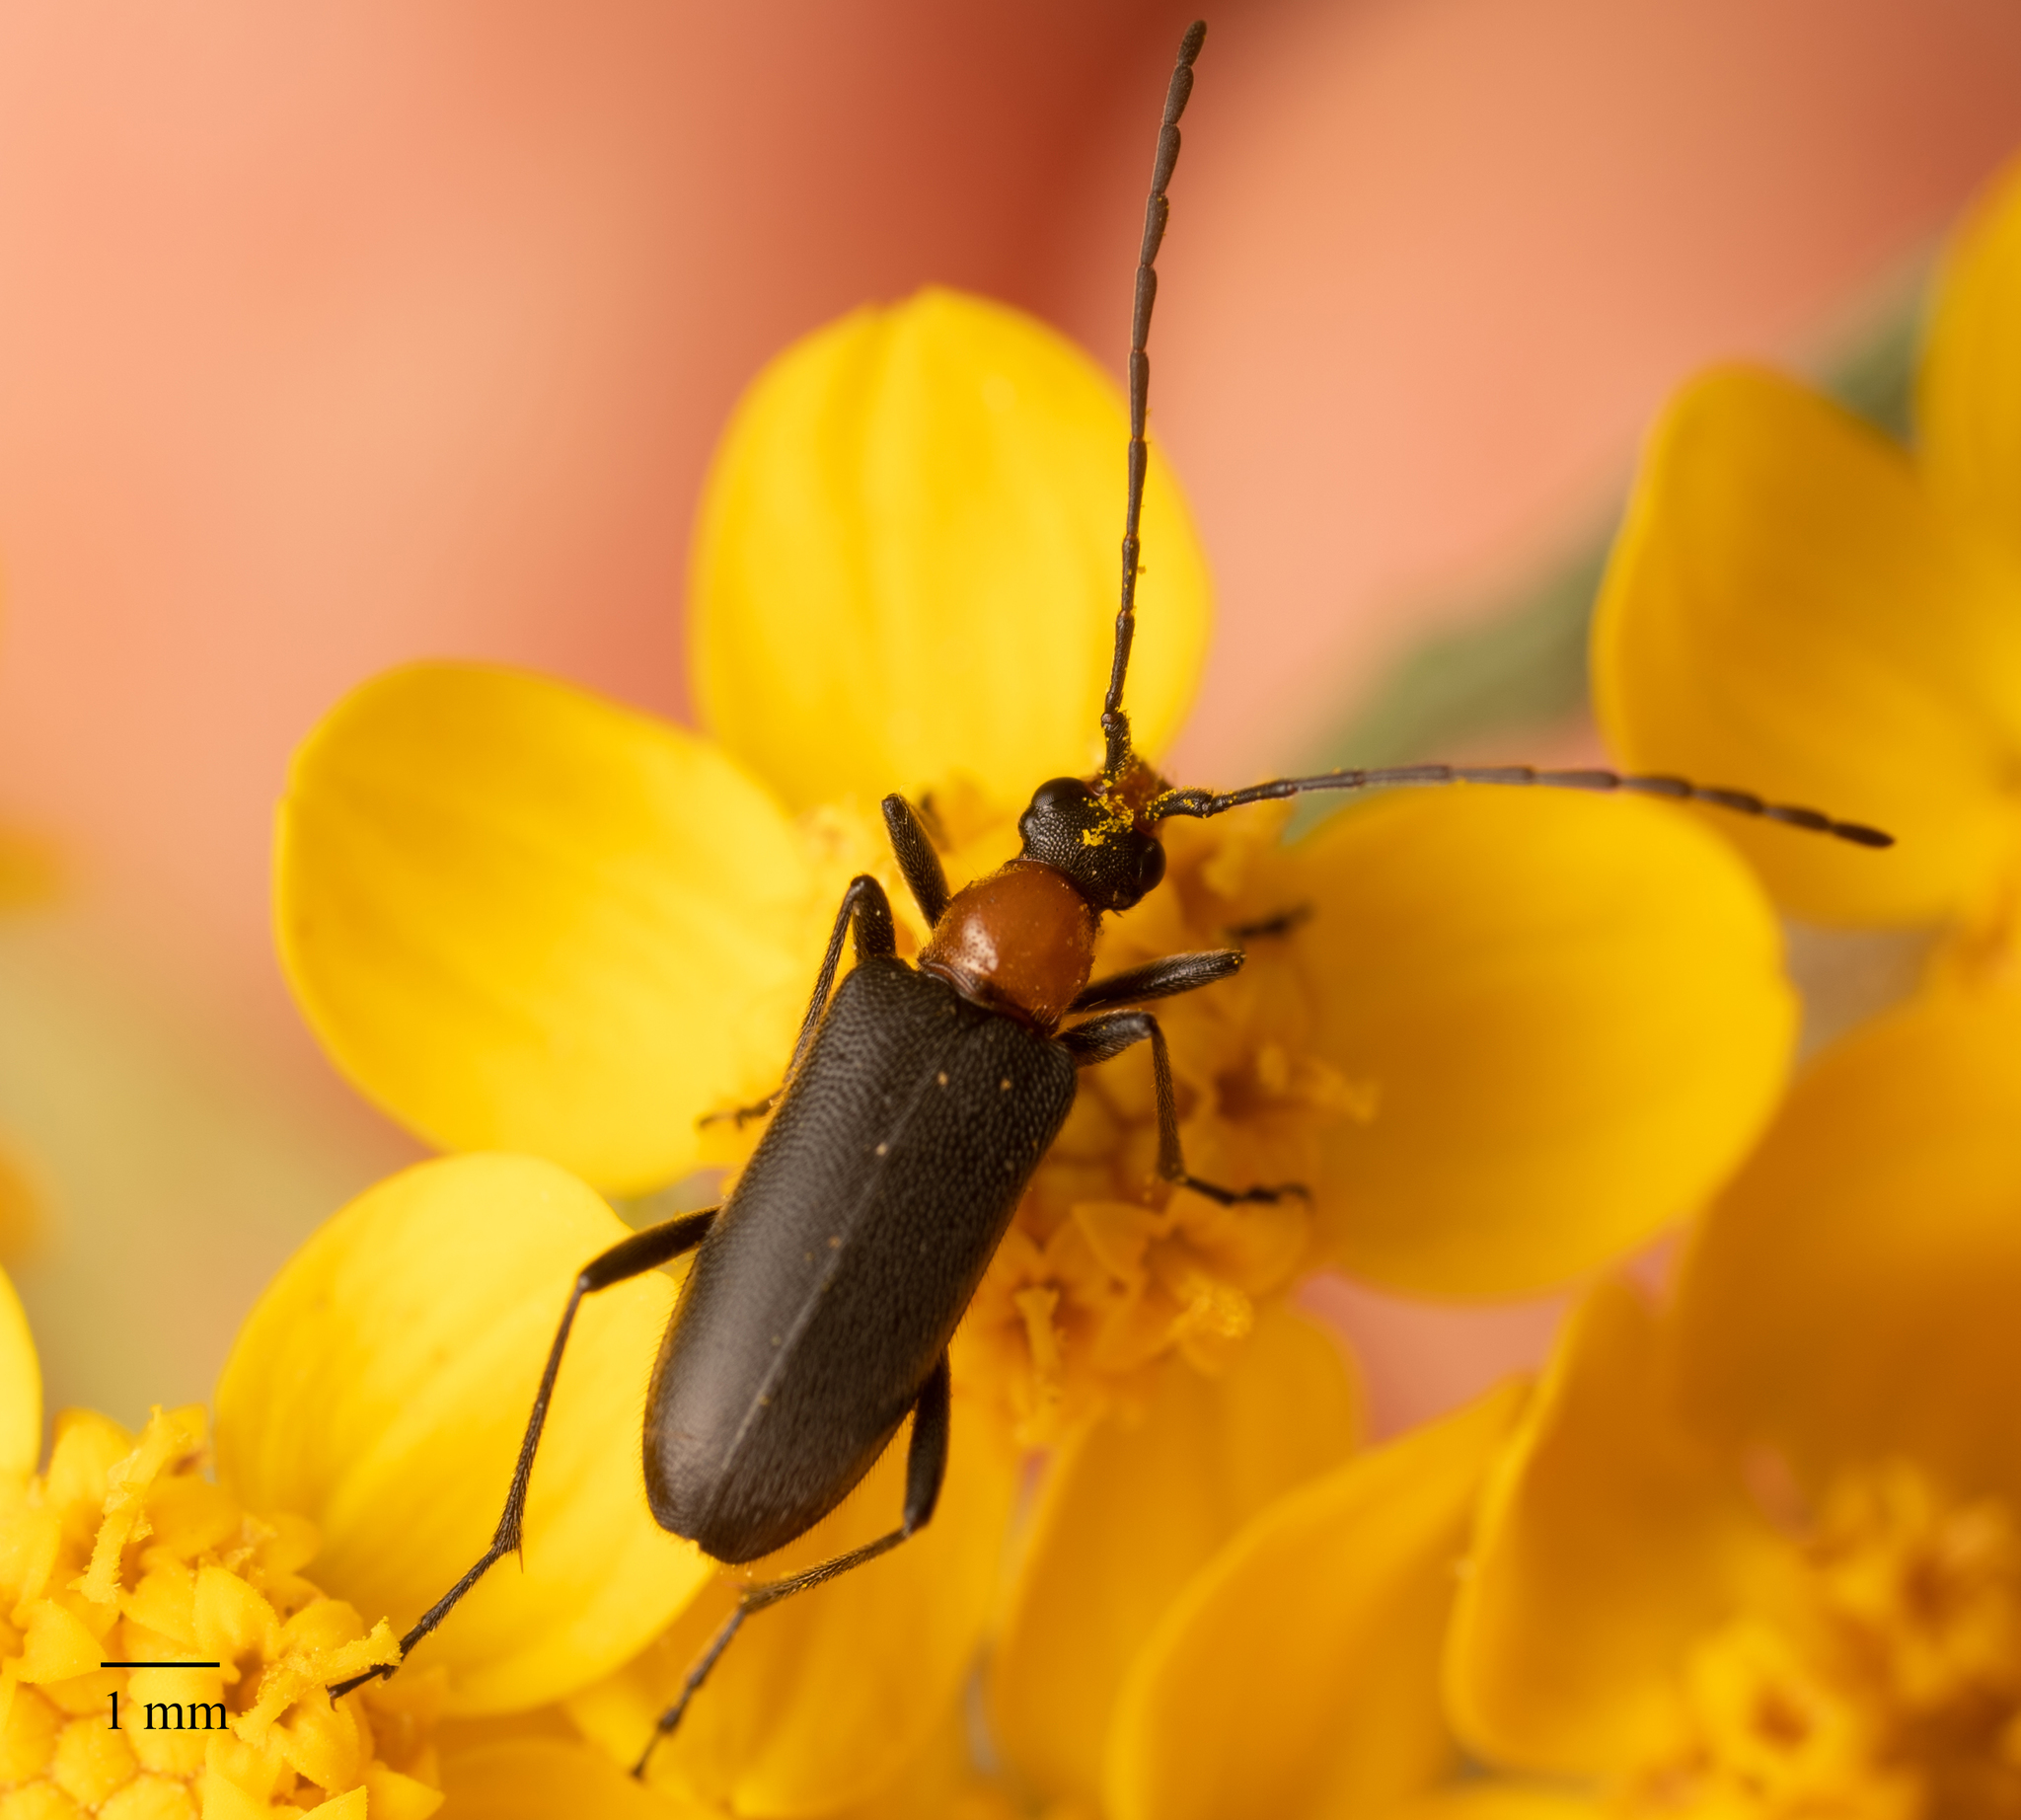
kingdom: Animalia
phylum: Arthropoda
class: Insecta
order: Coleoptera
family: Cerambycidae
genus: Cortodera
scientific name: Cortodera falsa
